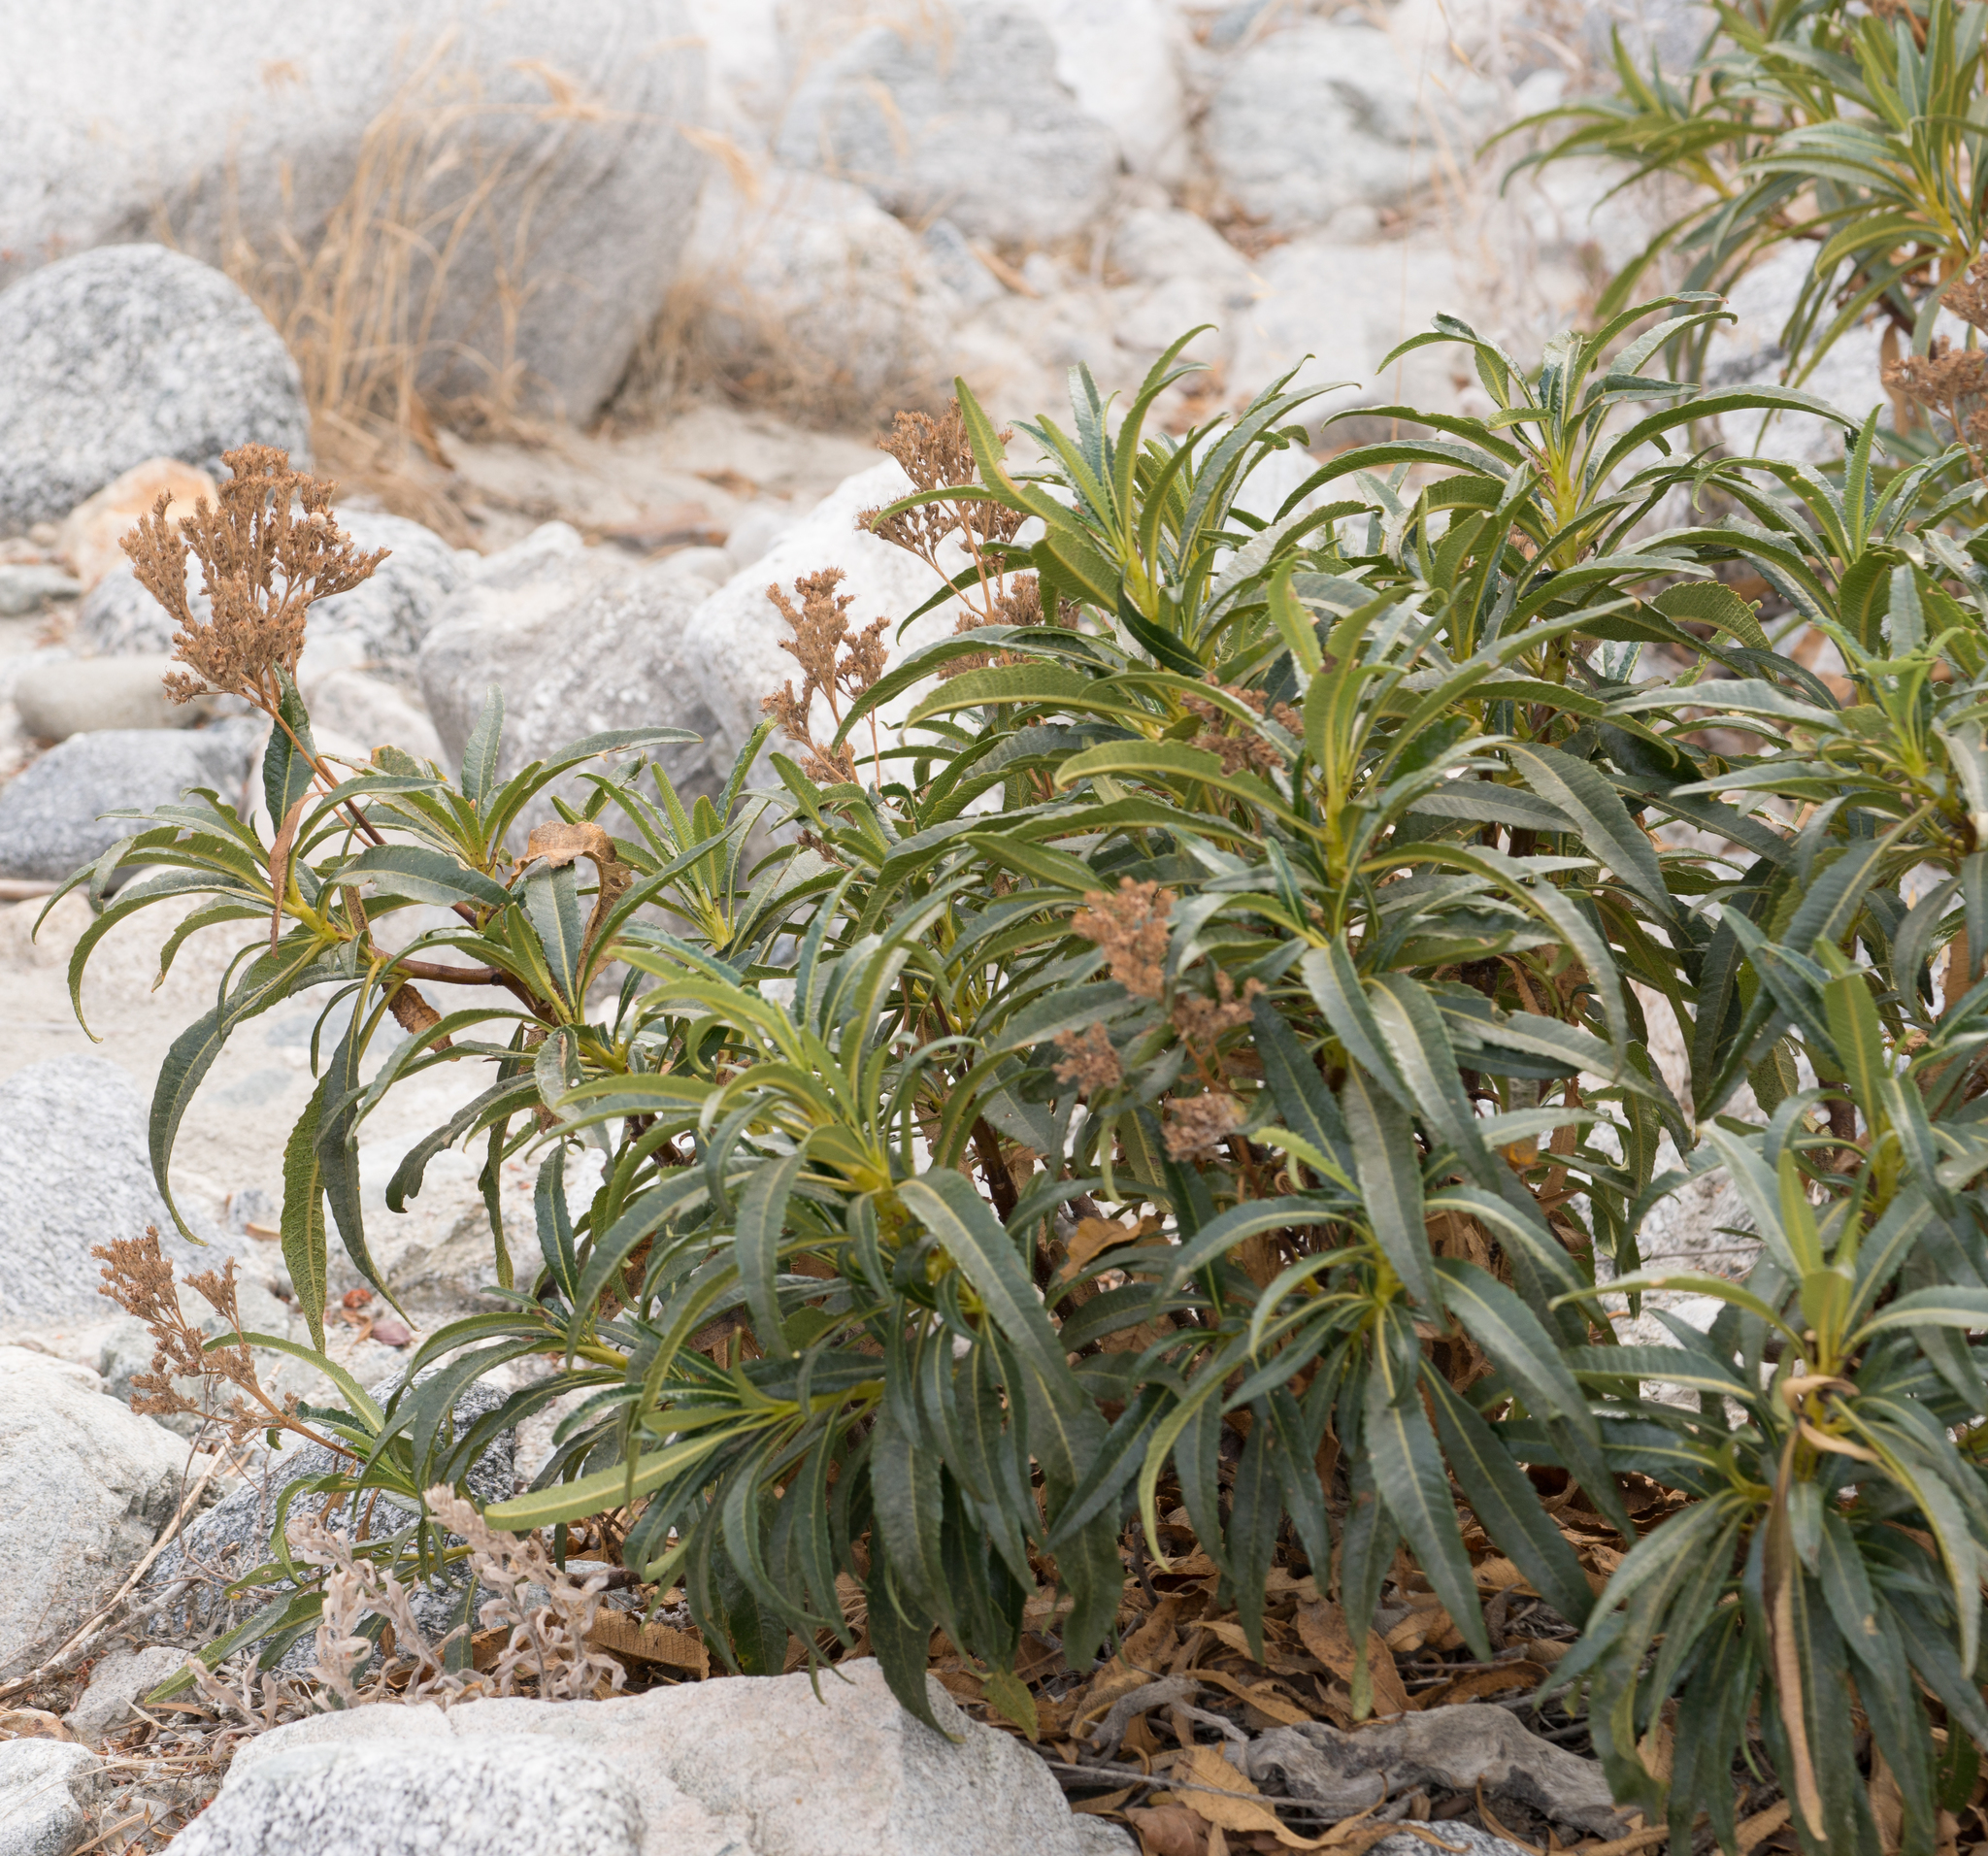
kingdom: Plantae
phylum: Tracheophyta
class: Magnoliopsida
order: Boraginales
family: Namaceae
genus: Eriodictyon
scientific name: Eriodictyon trichocalyx
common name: Hairy yerba-santa
